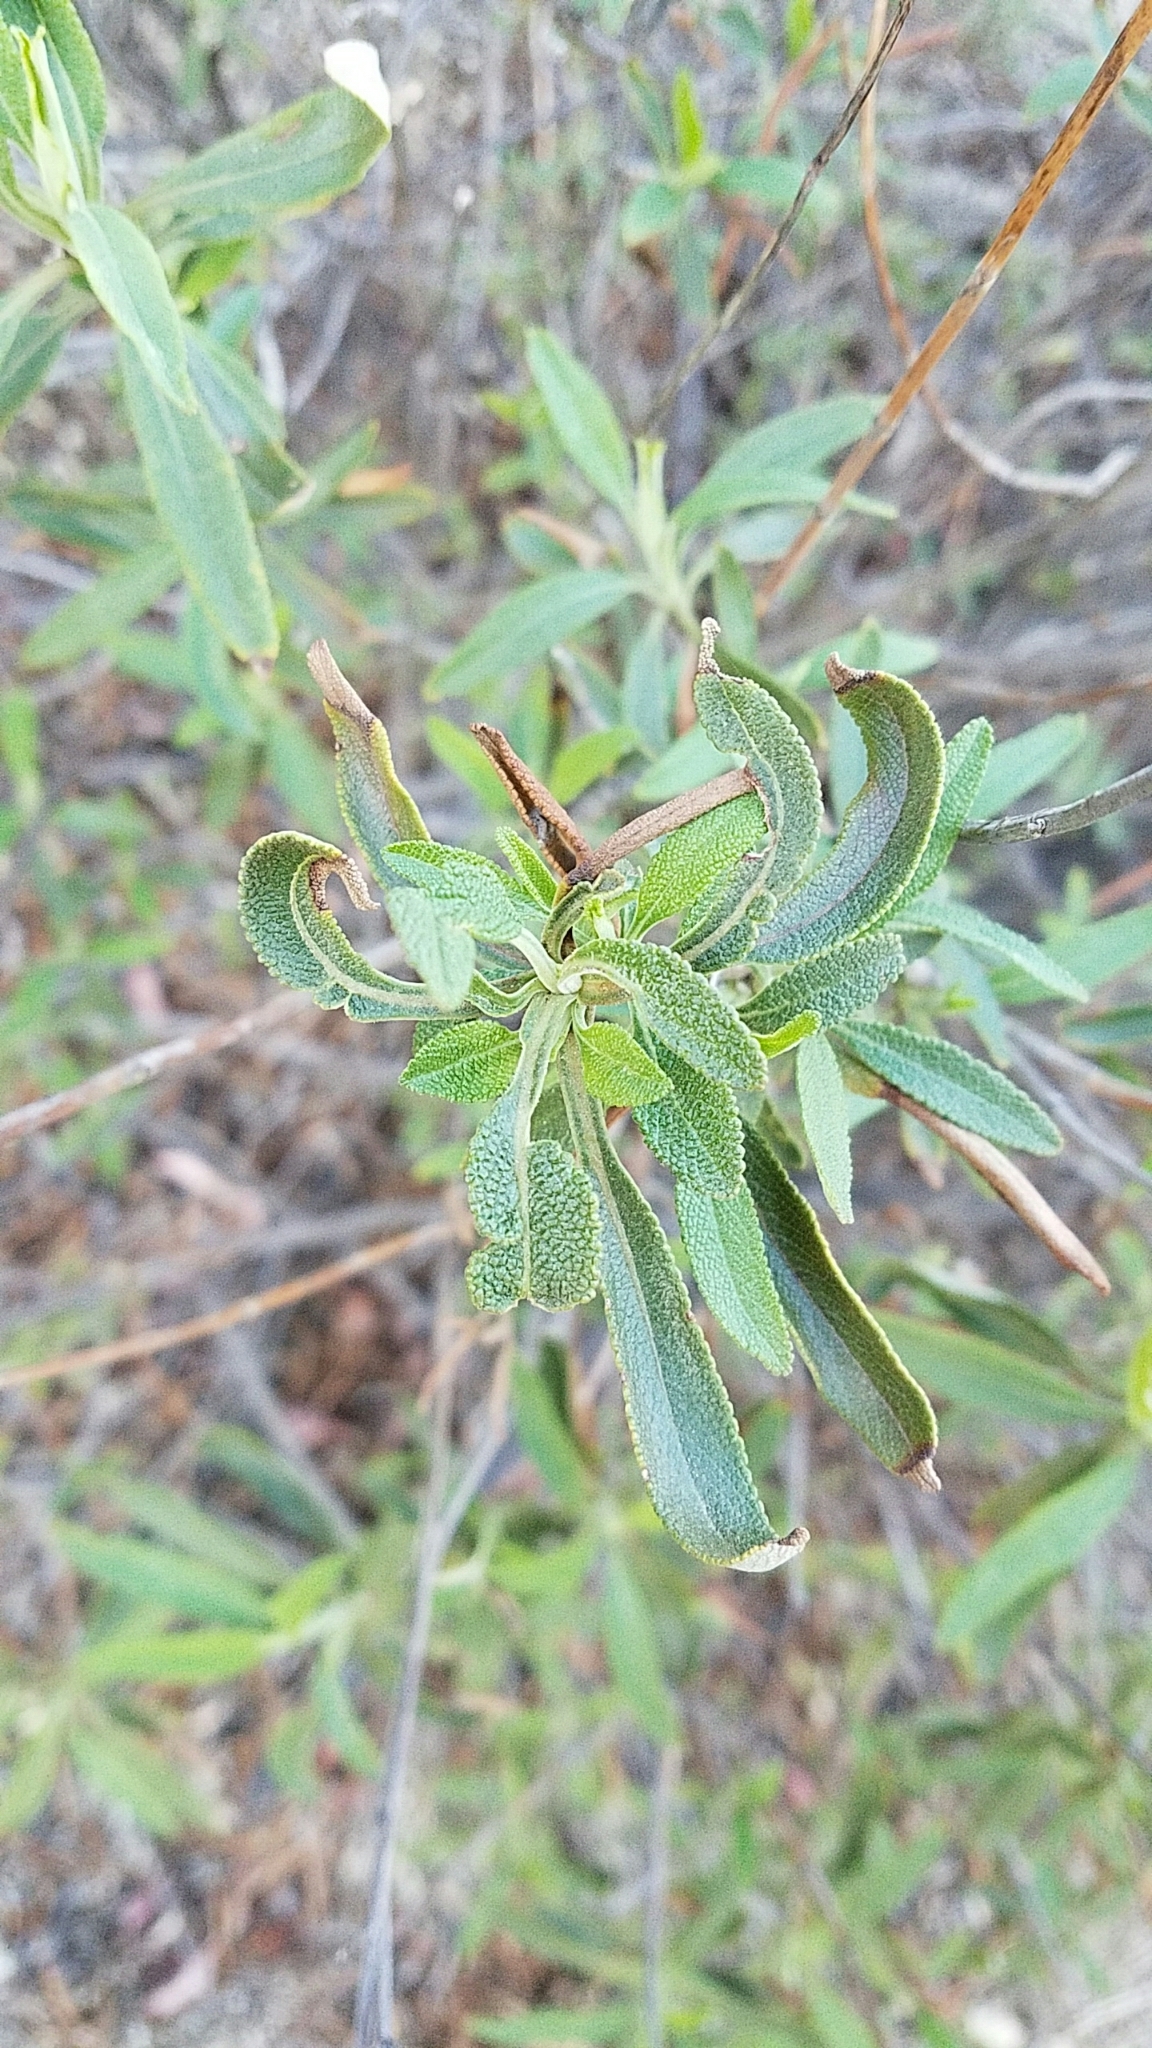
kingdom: Plantae
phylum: Tracheophyta
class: Magnoliopsida
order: Lamiales
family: Lamiaceae
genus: Salvia
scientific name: Salvia mellifera
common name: Black sage
